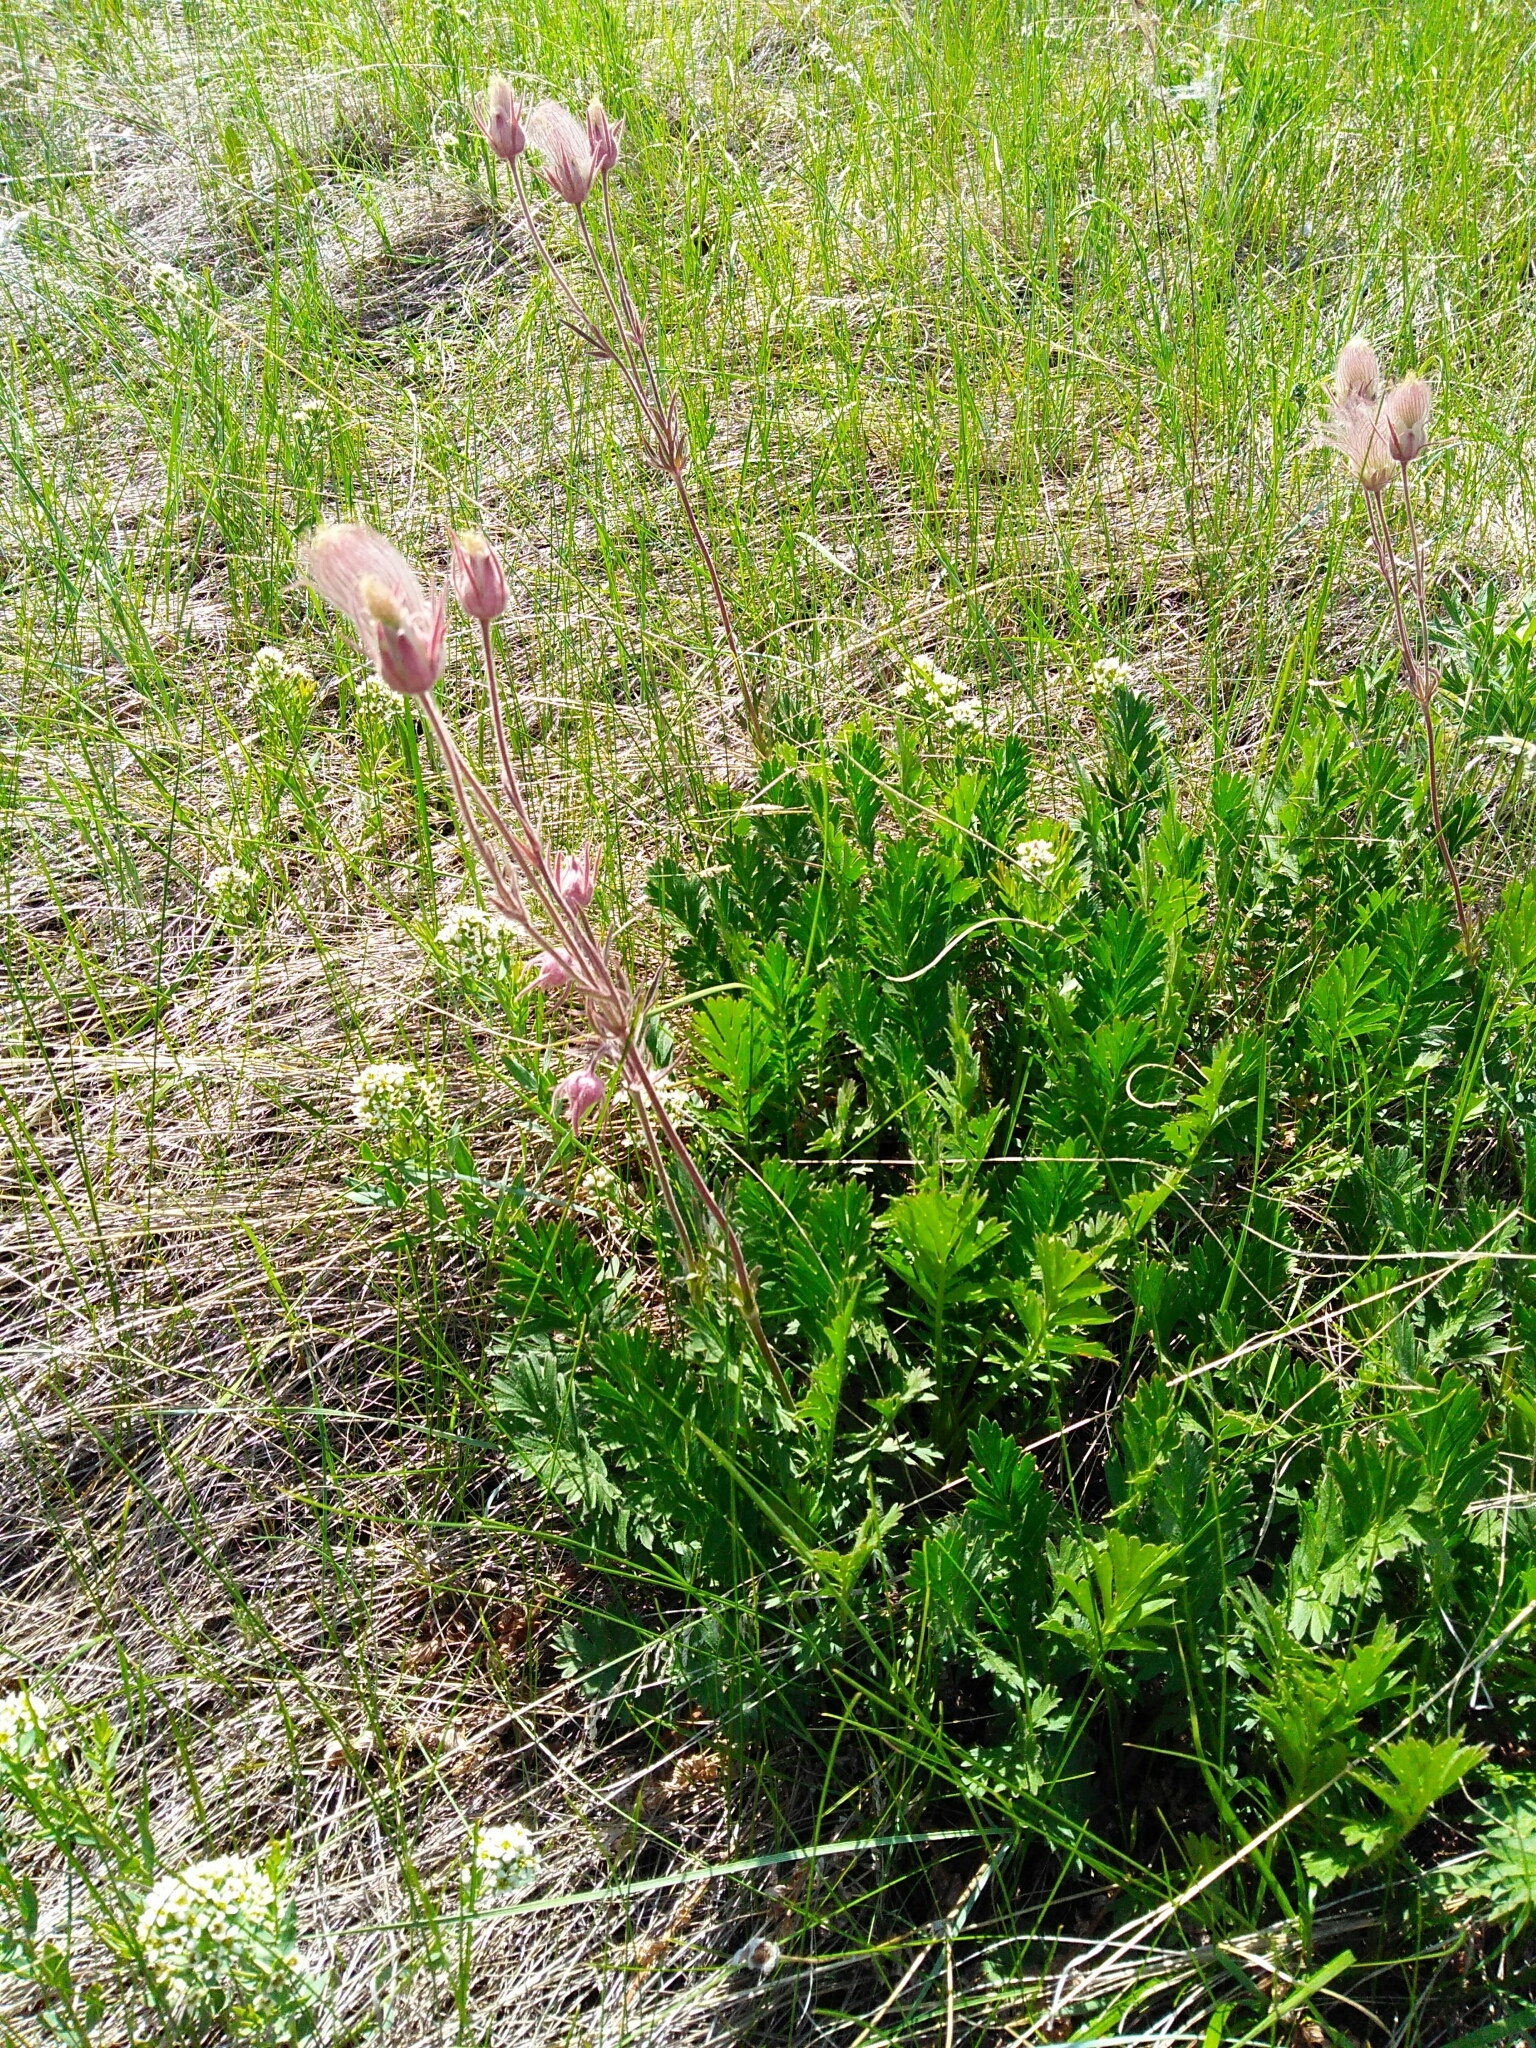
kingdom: Plantae
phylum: Tracheophyta
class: Magnoliopsida
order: Rosales
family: Rosaceae
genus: Geum
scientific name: Geum triflorum
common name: Old man's whiskers
